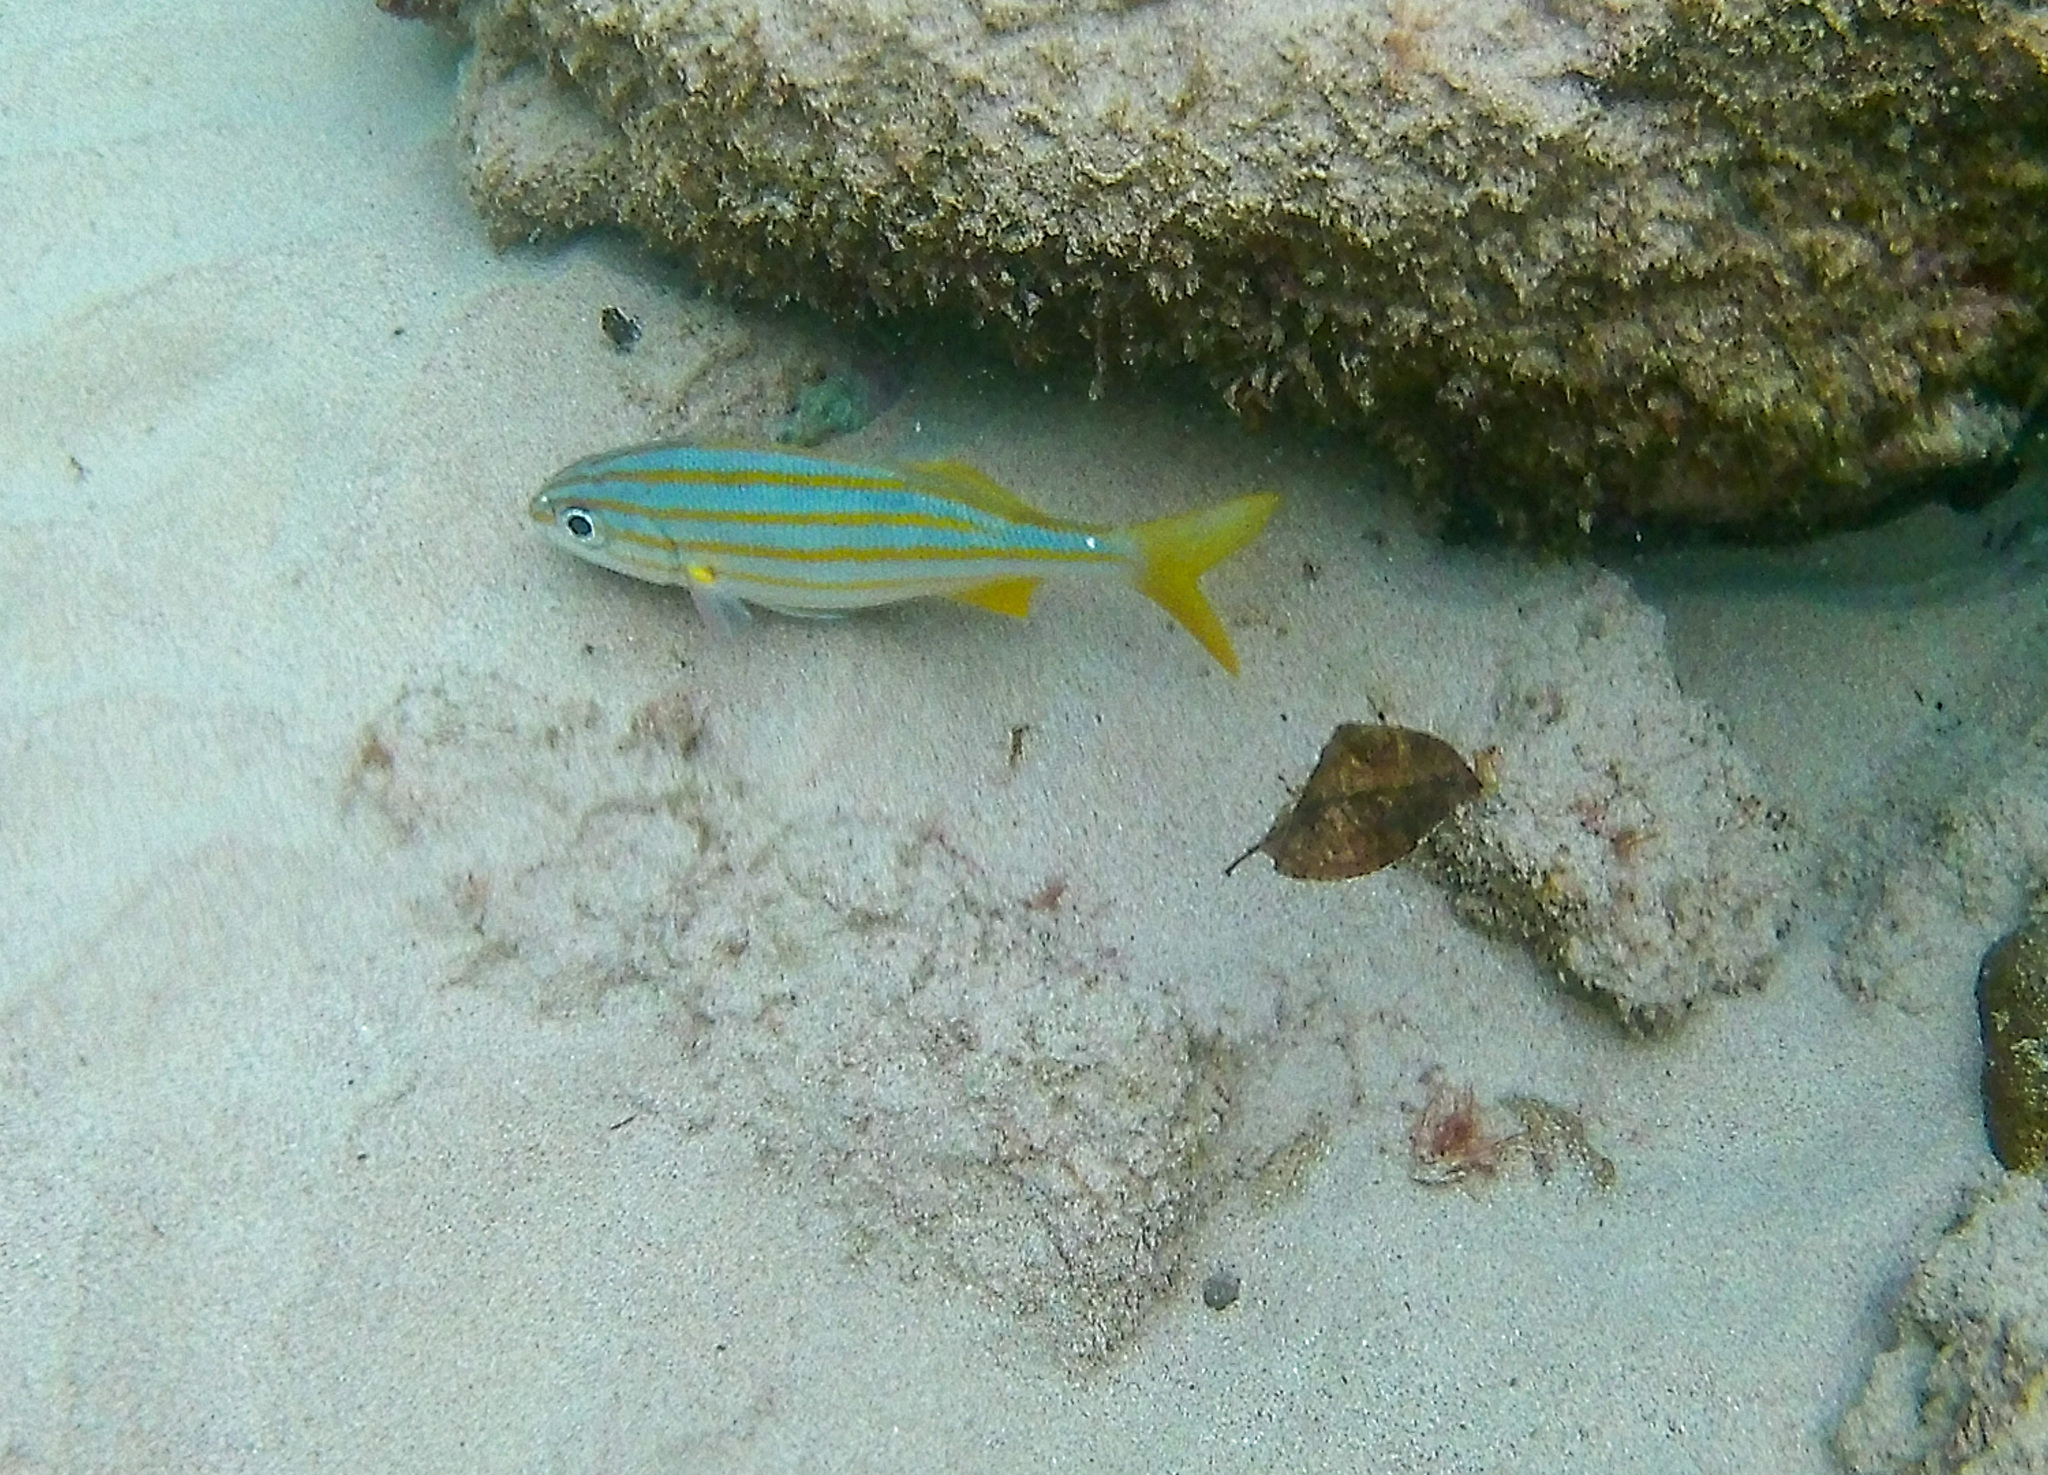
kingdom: Animalia
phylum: Chordata
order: Perciformes
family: Haemulidae
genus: Haemulon
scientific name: Haemulon chrysargyreum
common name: Smallmouth grunt
